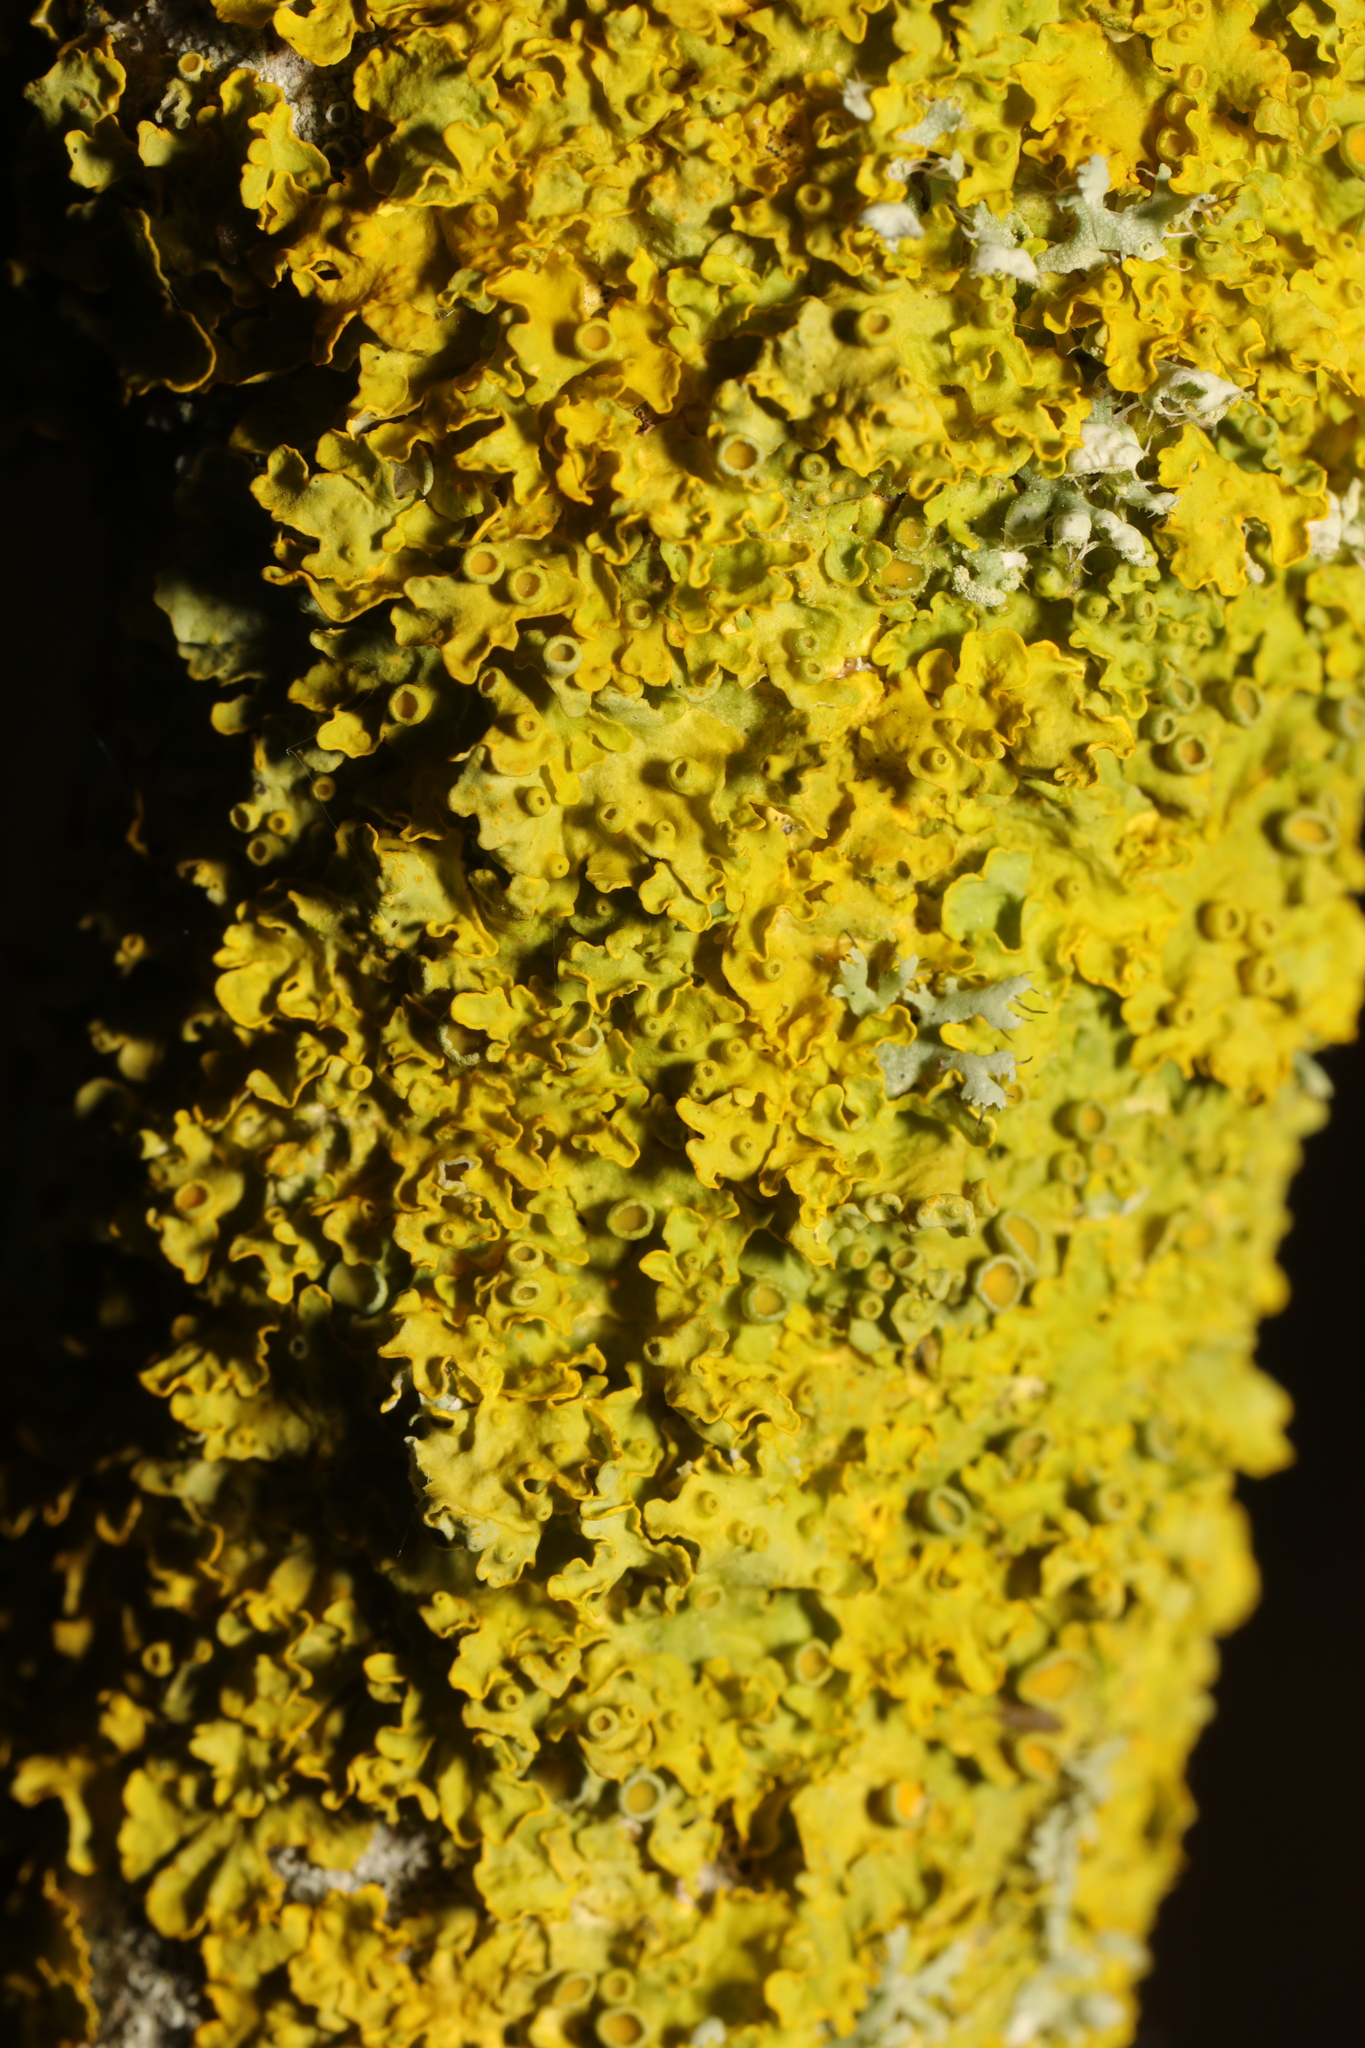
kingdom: Fungi
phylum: Ascomycota
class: Lecanoromycetes
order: Teloschistales
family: Teloschistaceae
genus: Xanthoria
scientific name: Xanthoria parietina
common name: Common orange lichen
